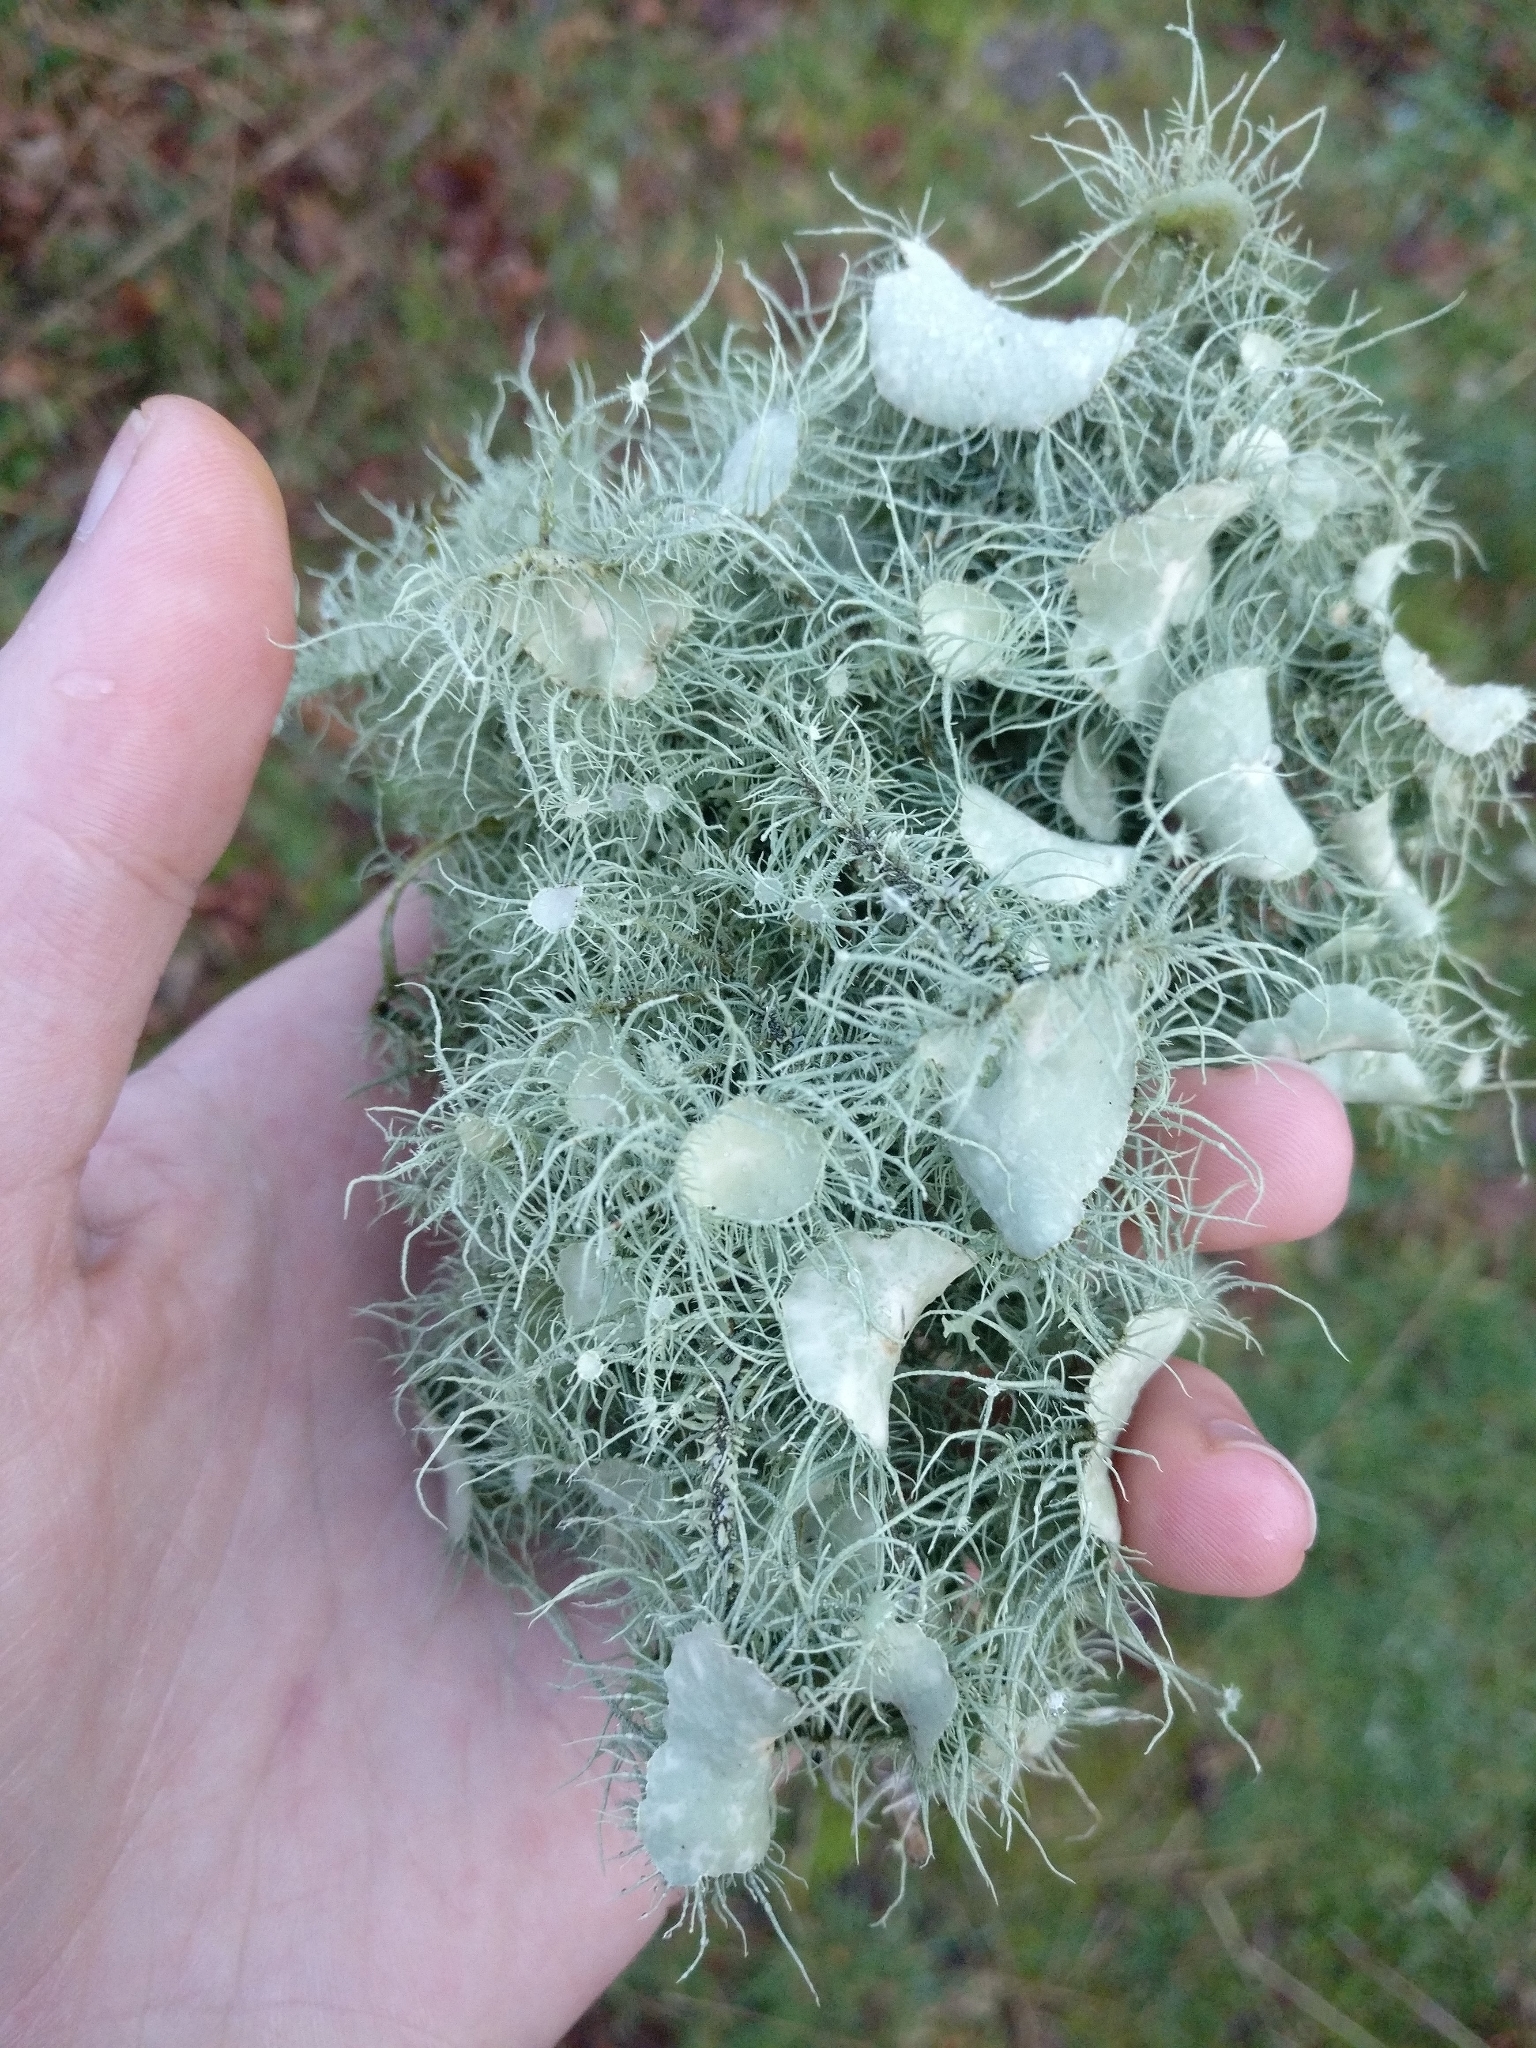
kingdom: Fungi
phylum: Ascomycota
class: Lecanoromycetes
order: Lecanorales
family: Parmeliaceae
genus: Usnea
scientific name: Usnea florida
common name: Witches' whiskers lichen
